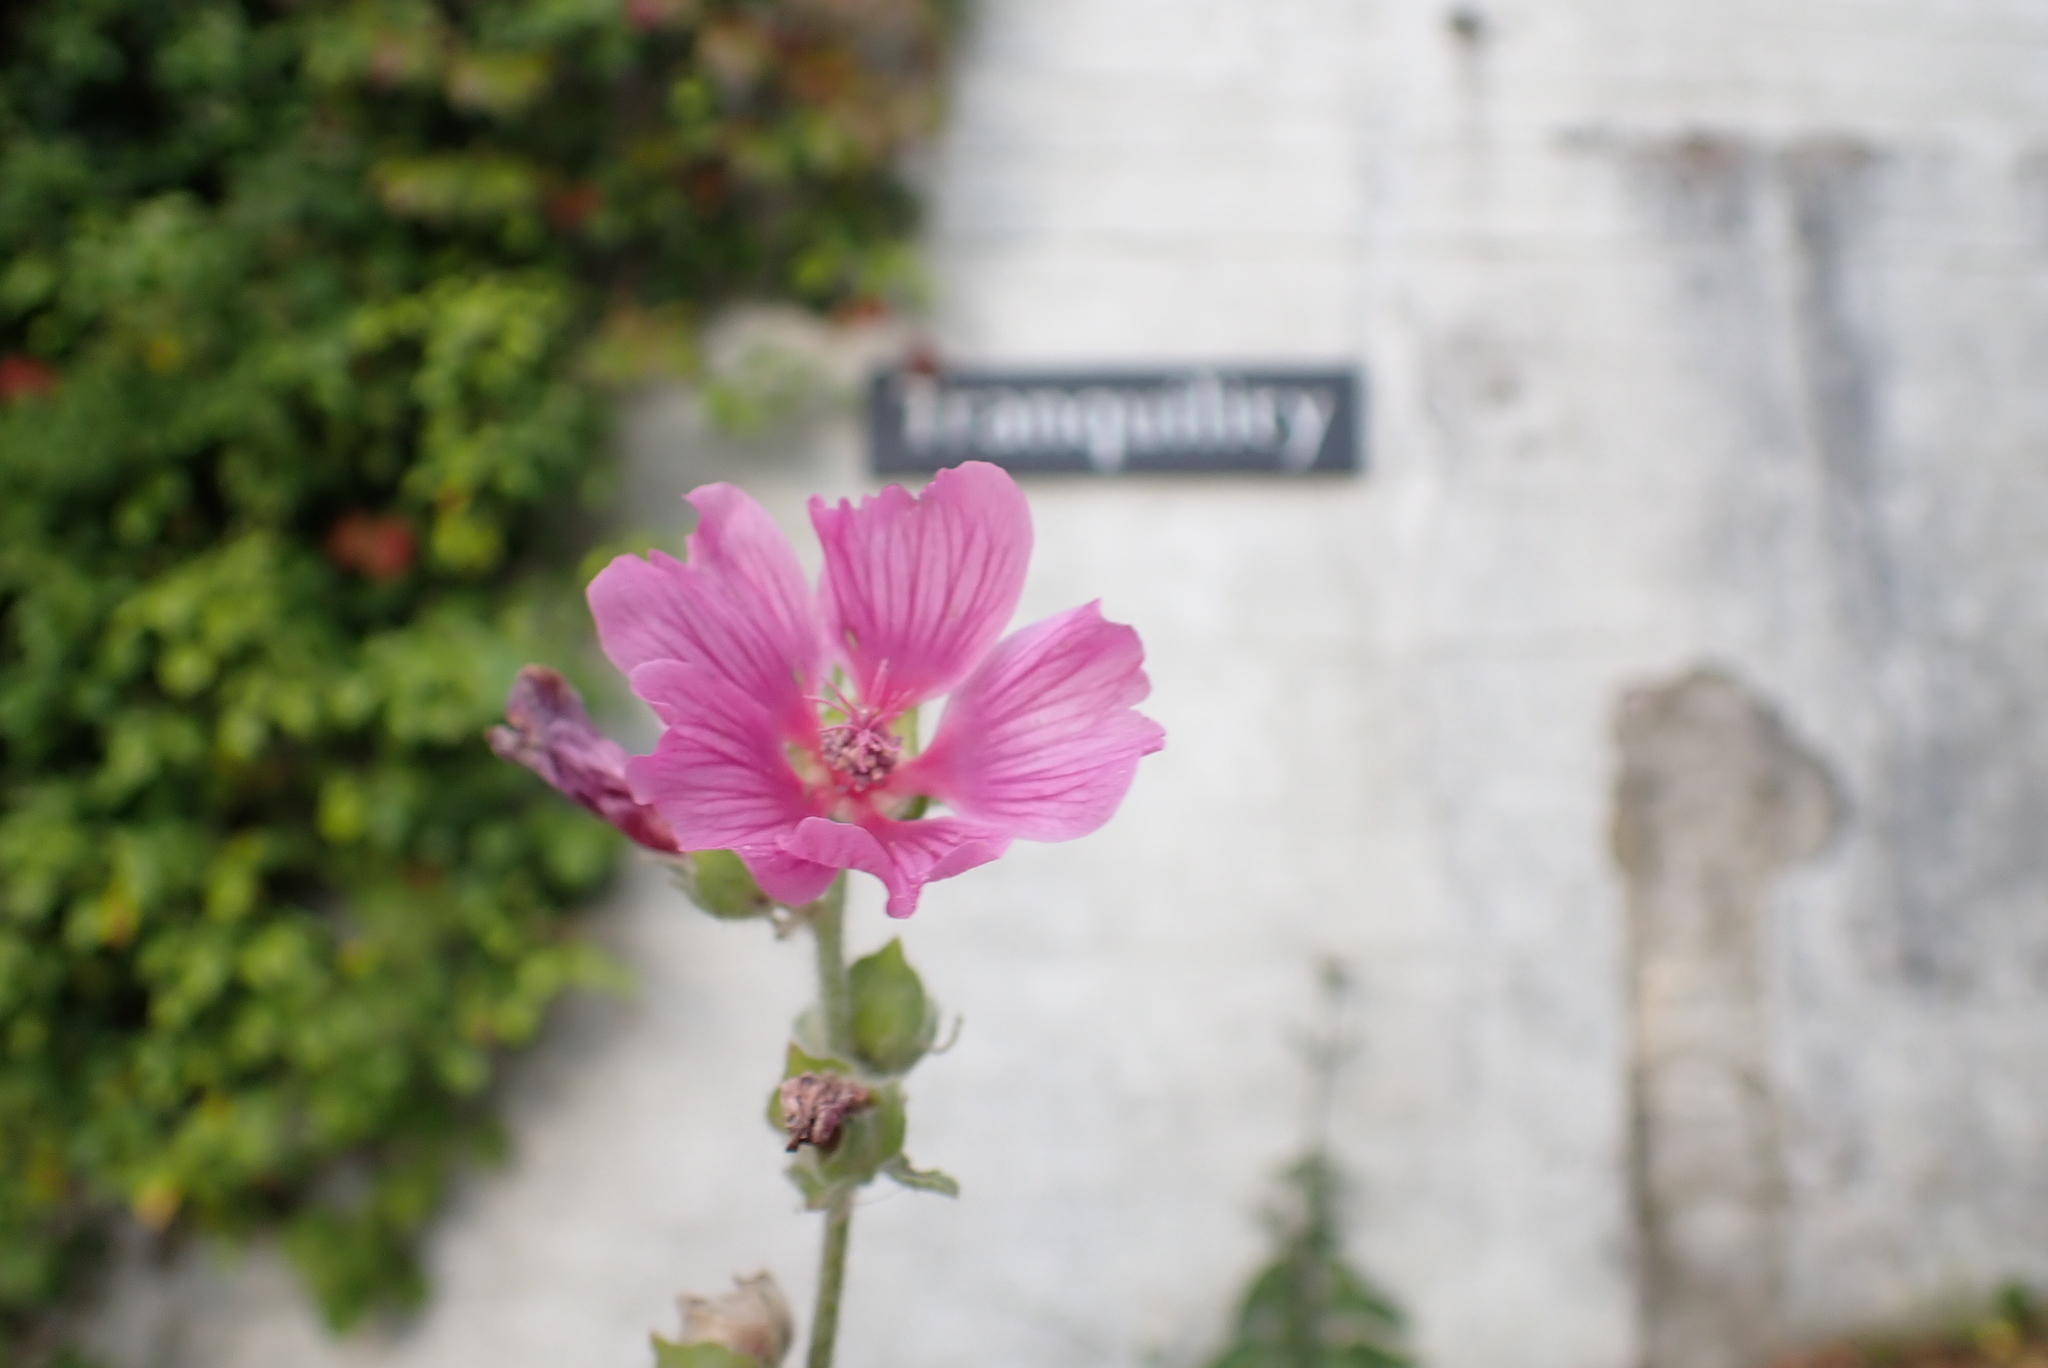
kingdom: Plantae
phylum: Tracheophyta
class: Magnoliopsida
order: Malvales
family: Malvaceae
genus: Malva
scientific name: Malva clementii
